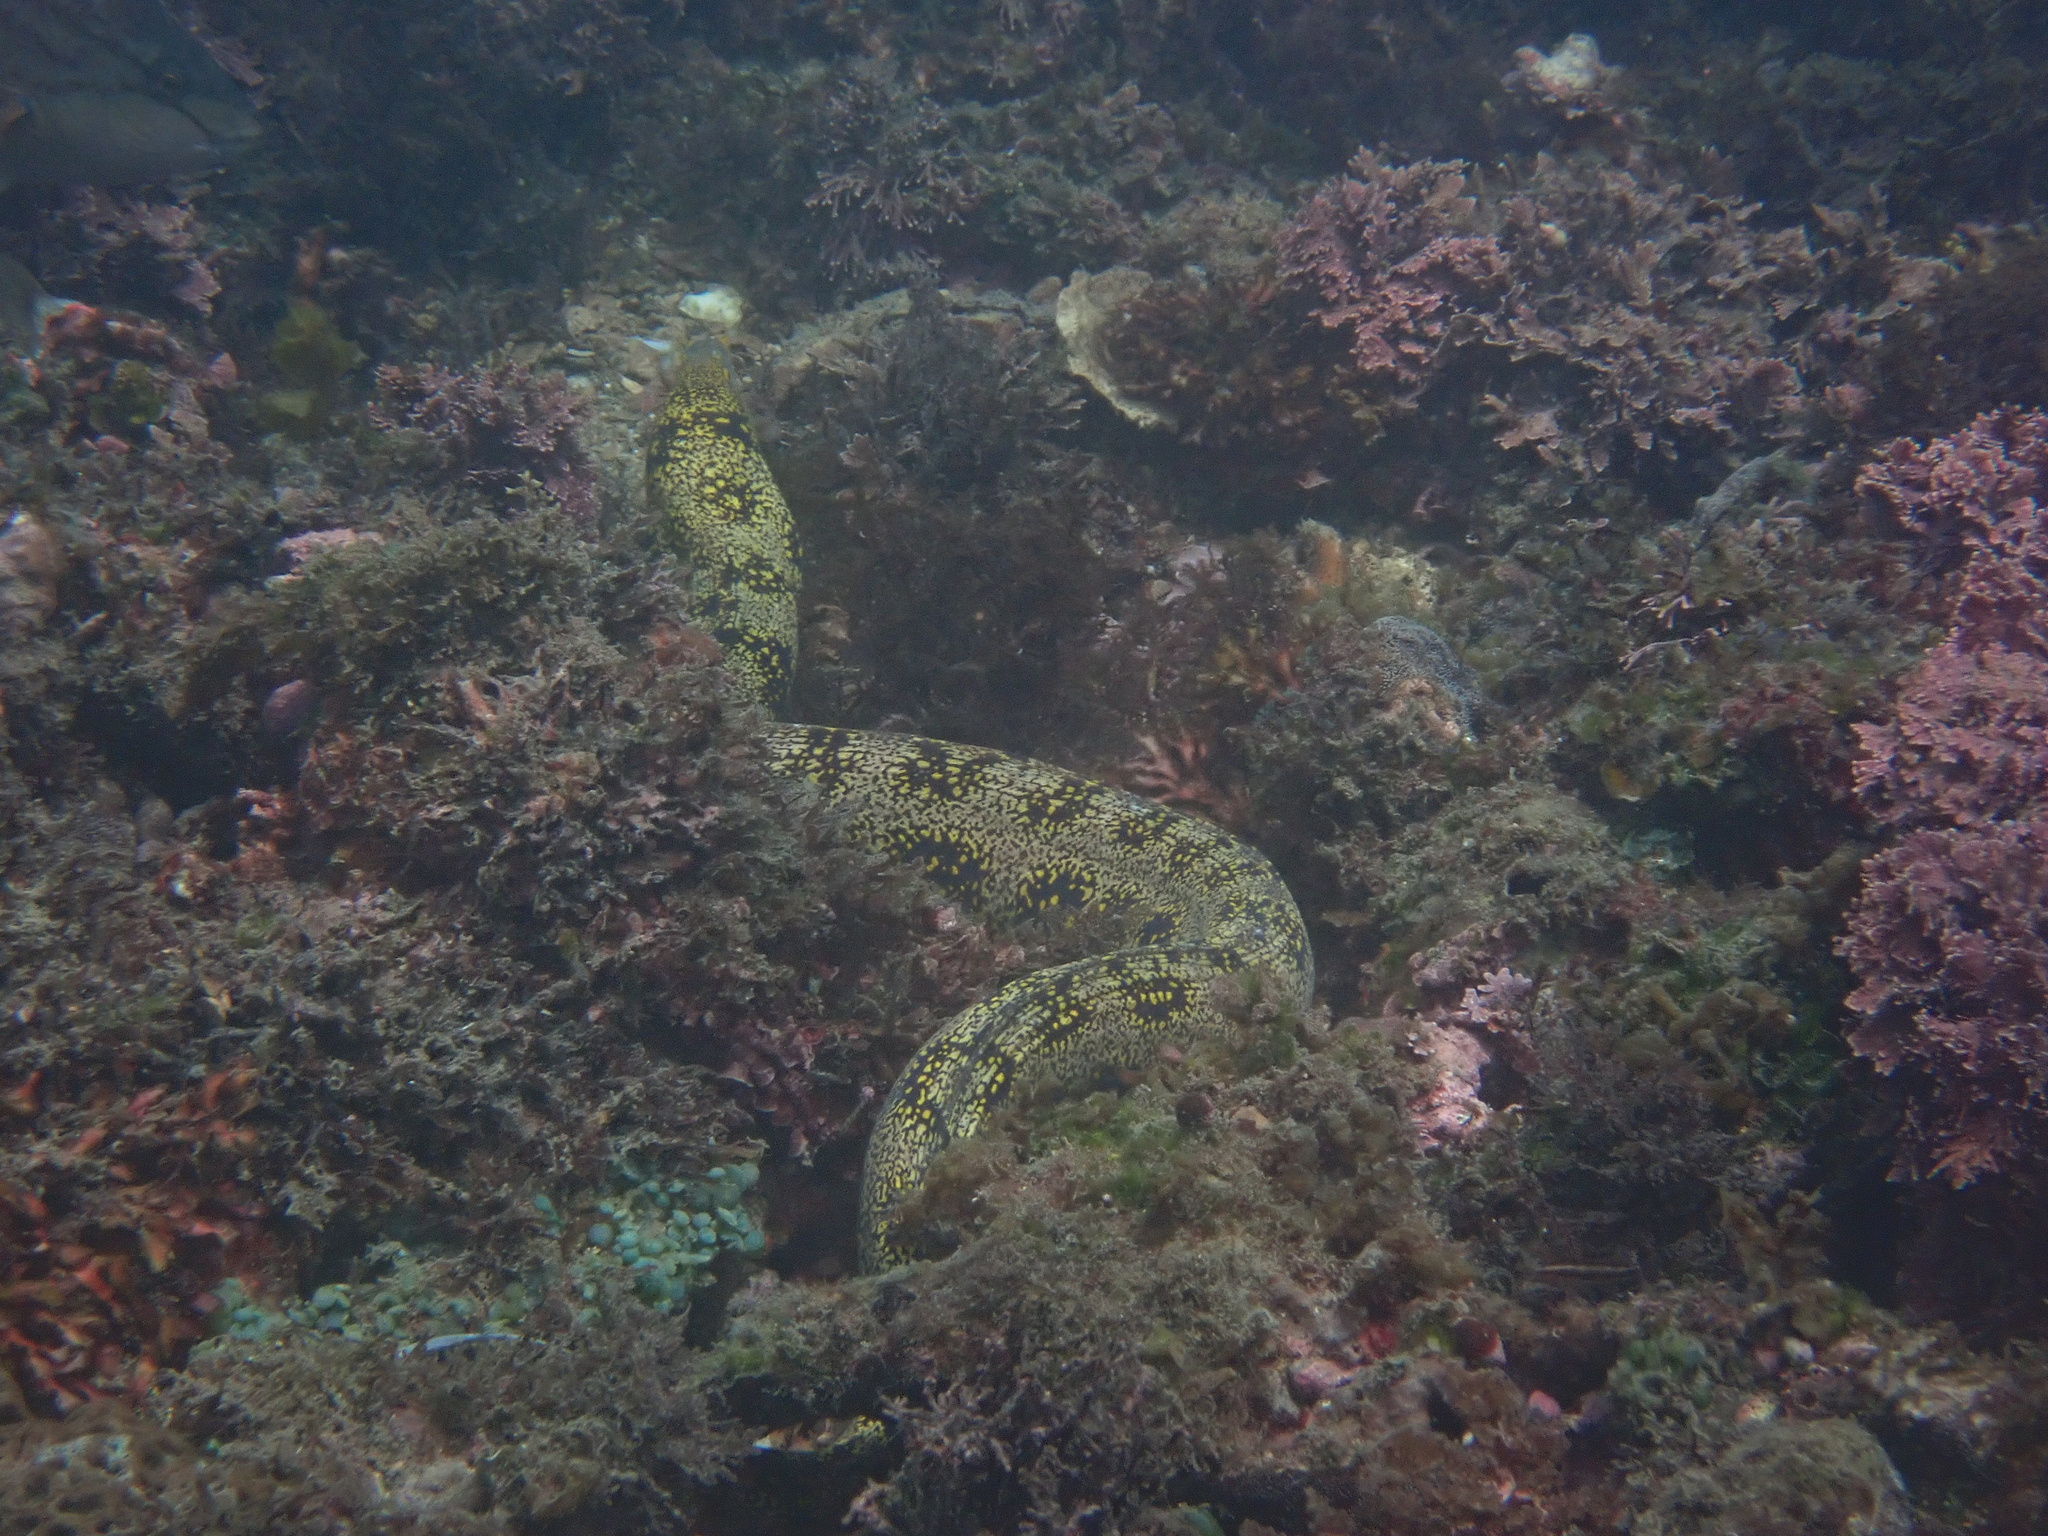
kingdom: Animalia
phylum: Chordata
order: Anguilliformes
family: Muraenidae
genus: Echidna
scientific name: Echidna nebulosa
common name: Snowflake moray
